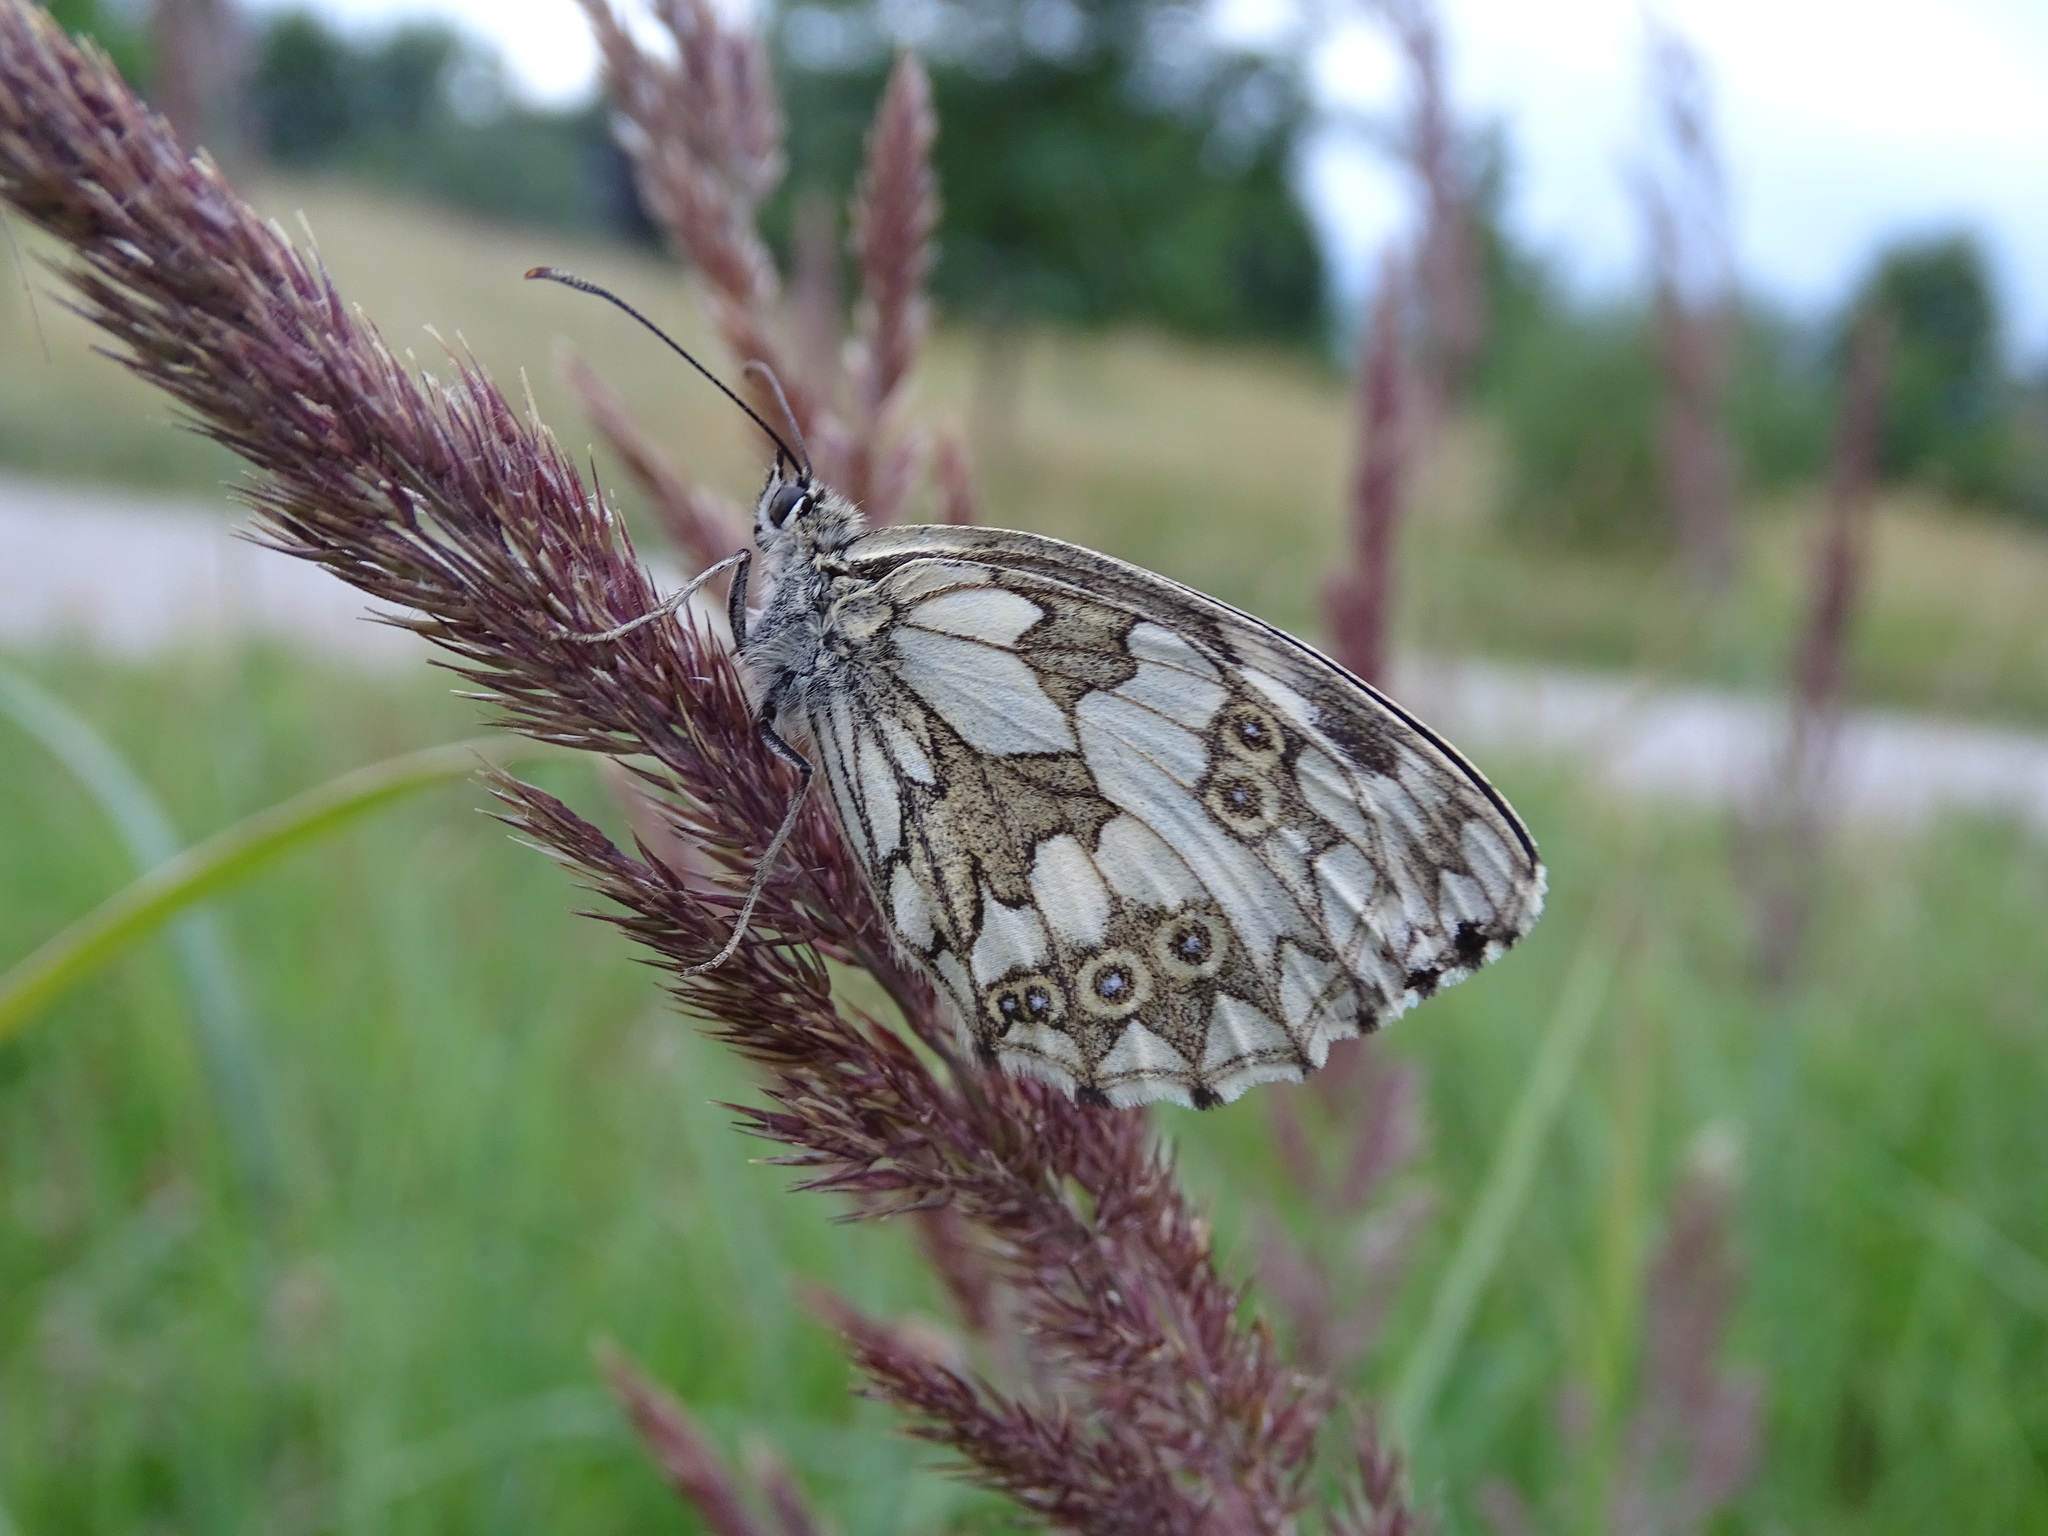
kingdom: Animalia
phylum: Arthropoda
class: Insecta
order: Lepidoptera
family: Nymphalidae
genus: Melanargia
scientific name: Melanargia galathea
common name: Marbled white
